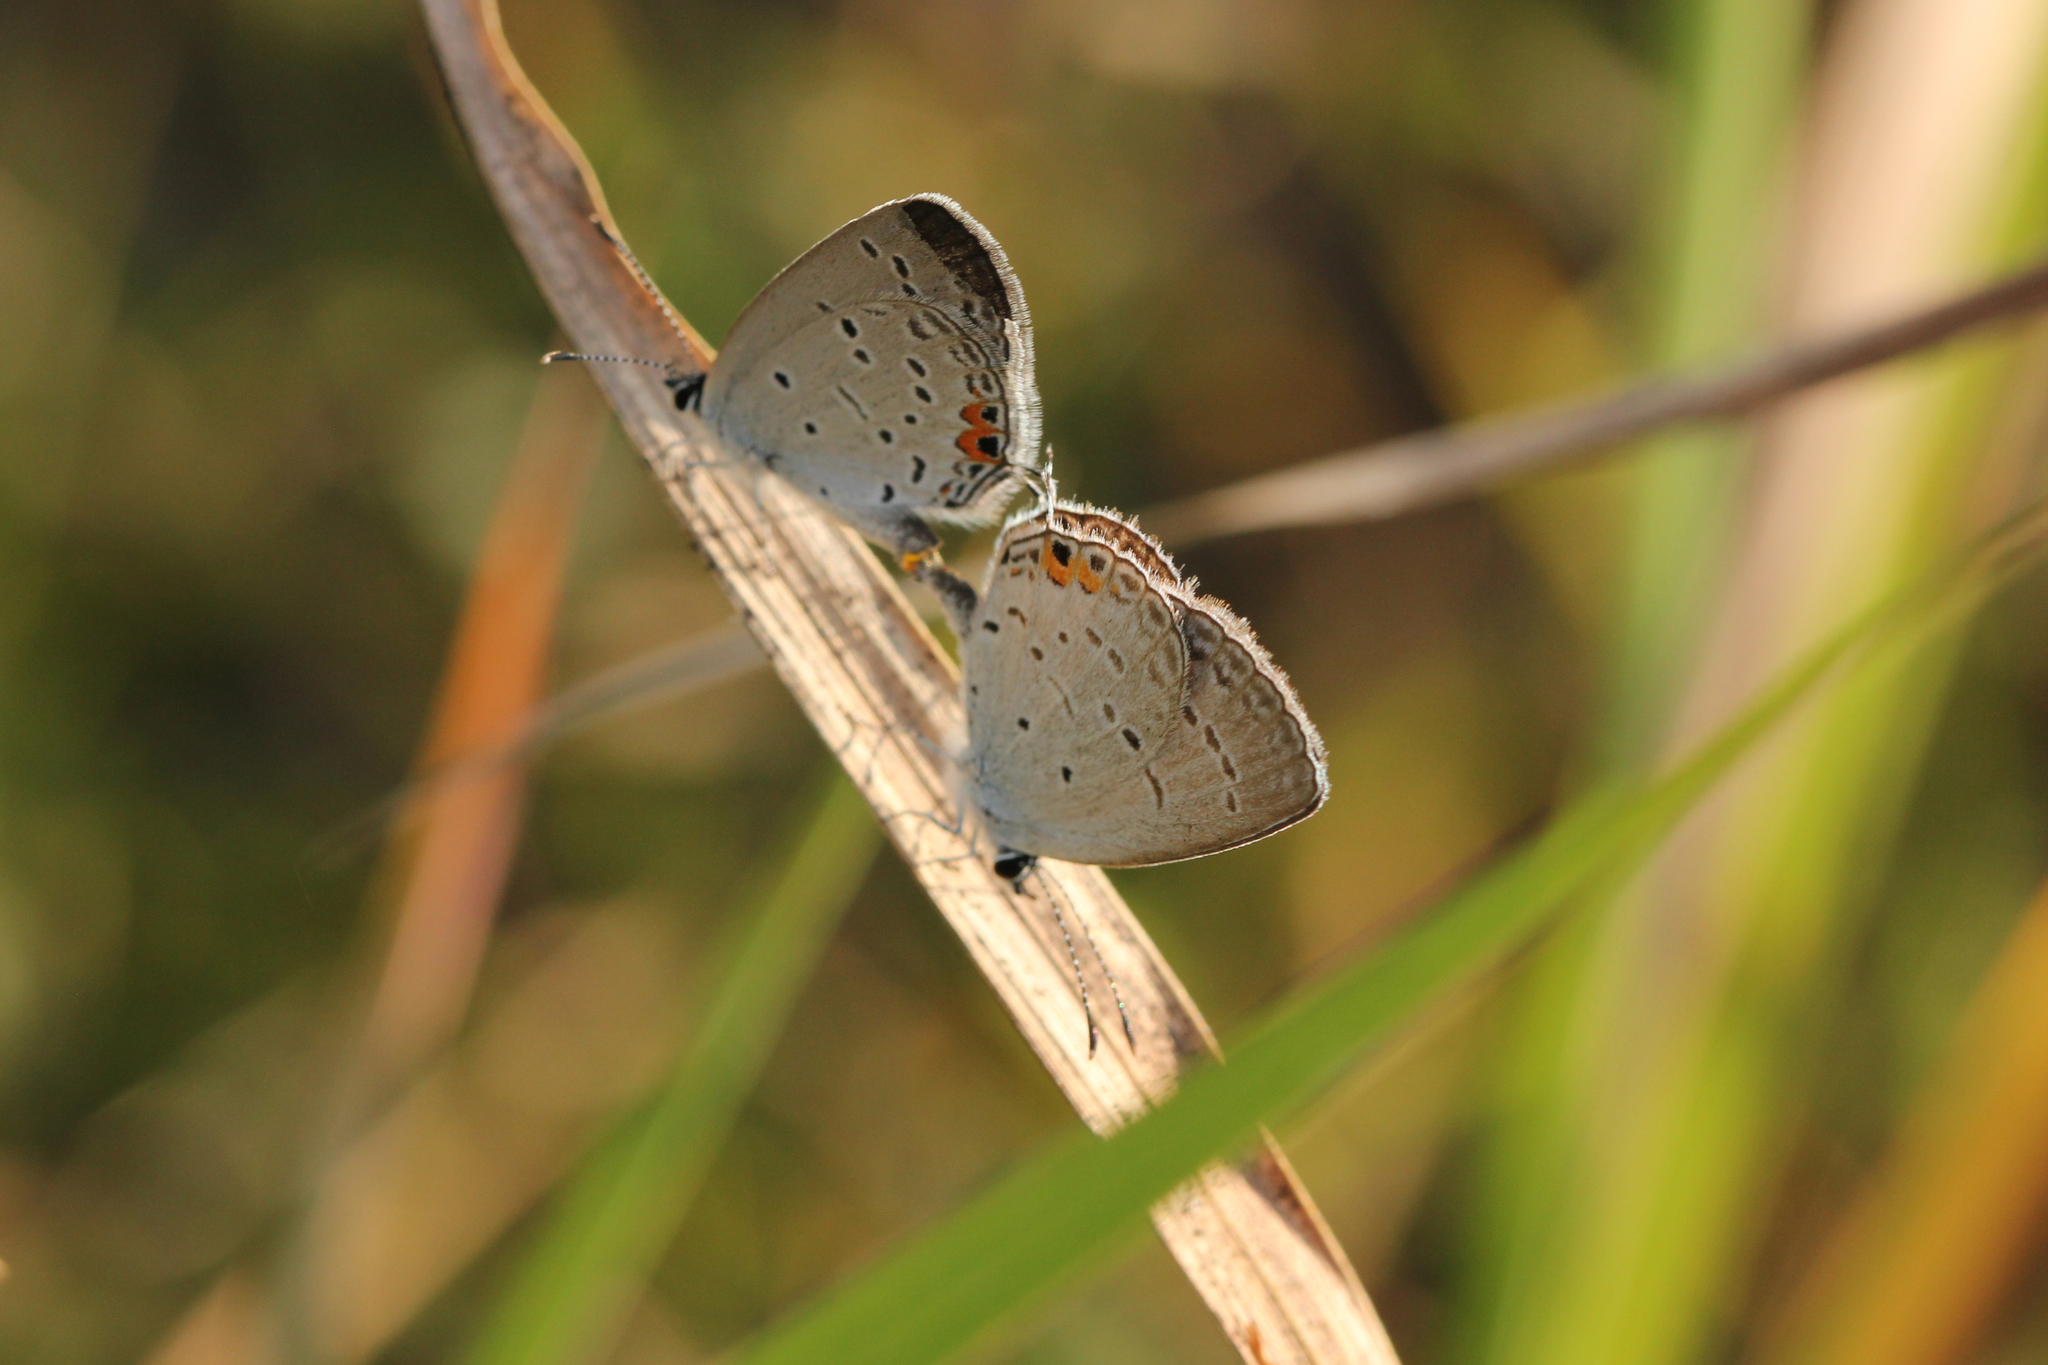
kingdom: Animalia
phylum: Arthropoda
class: Insecta
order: Lepidoptera
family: Lycaenidae
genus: Elkalyce
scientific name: Elkalyce comyntas
